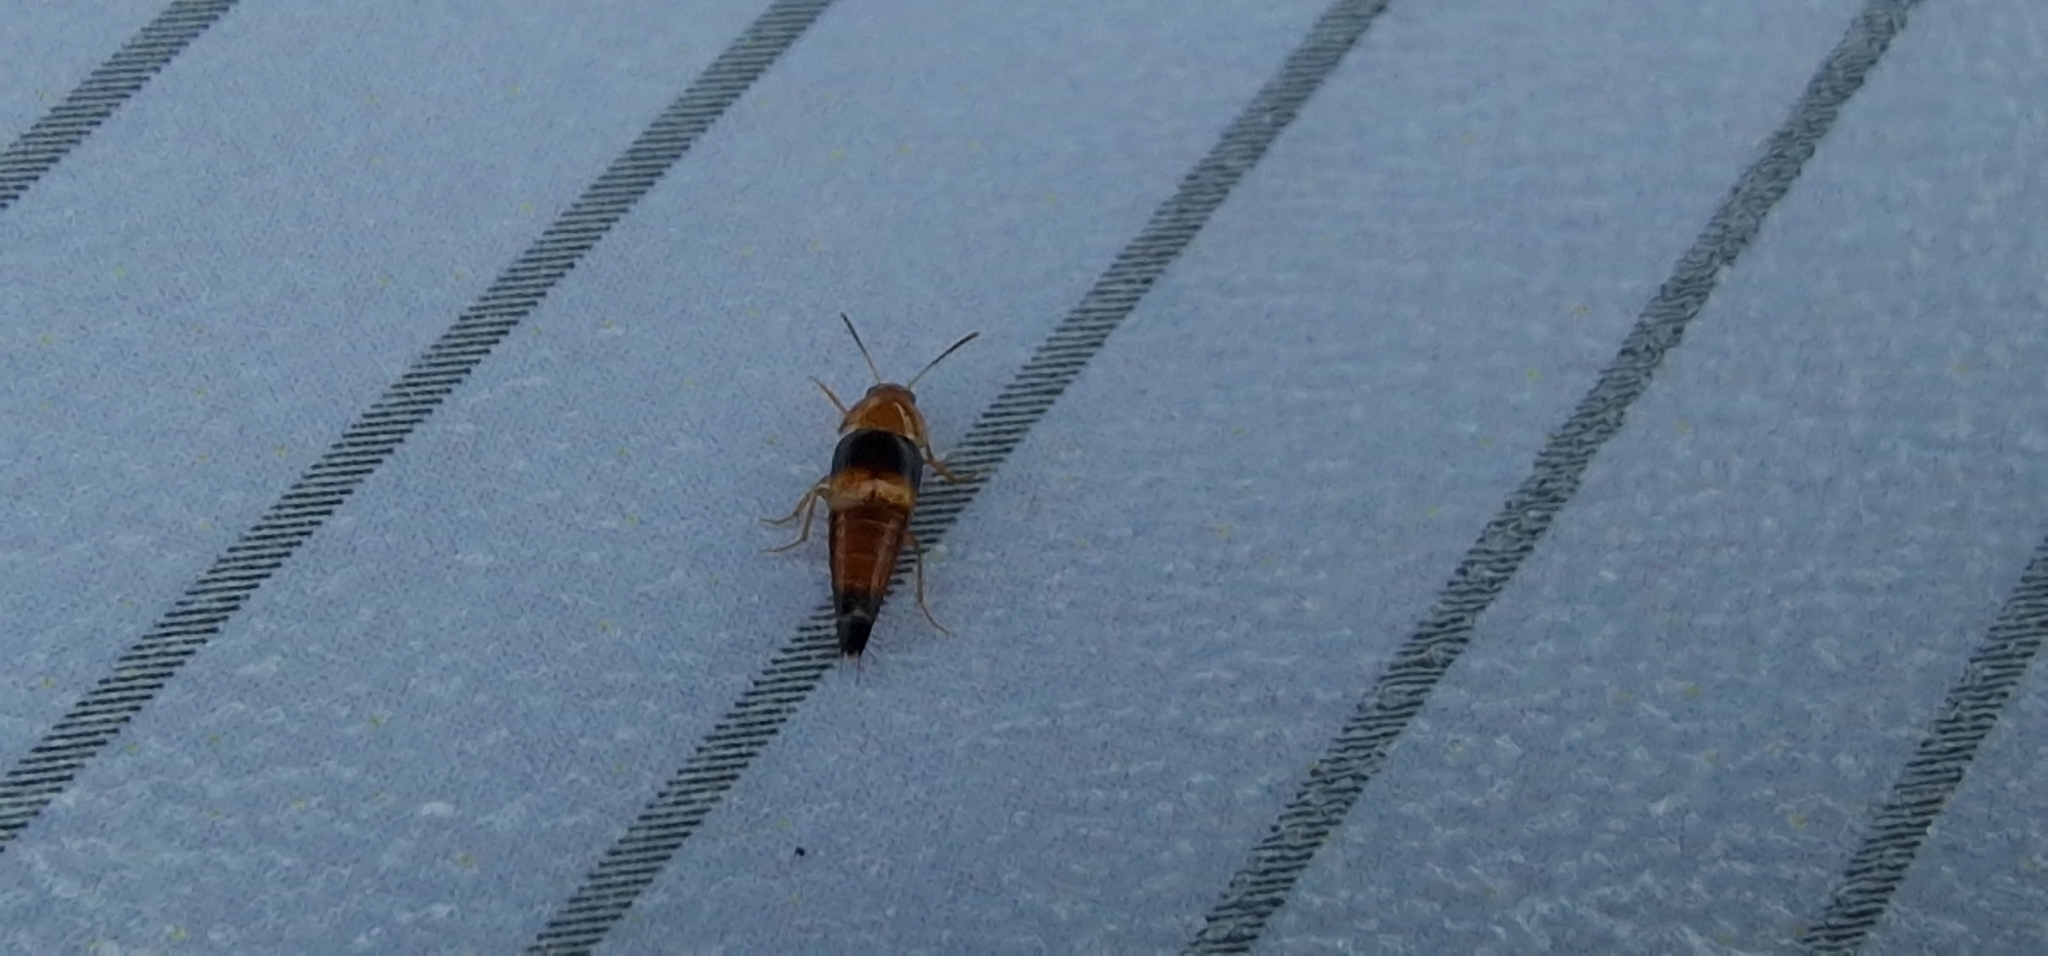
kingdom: Animalia
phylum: Arthropoda
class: Insecta
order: Coleoptera
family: Staphylinidae
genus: Tachyporus
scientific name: Tachyporus obtusus
